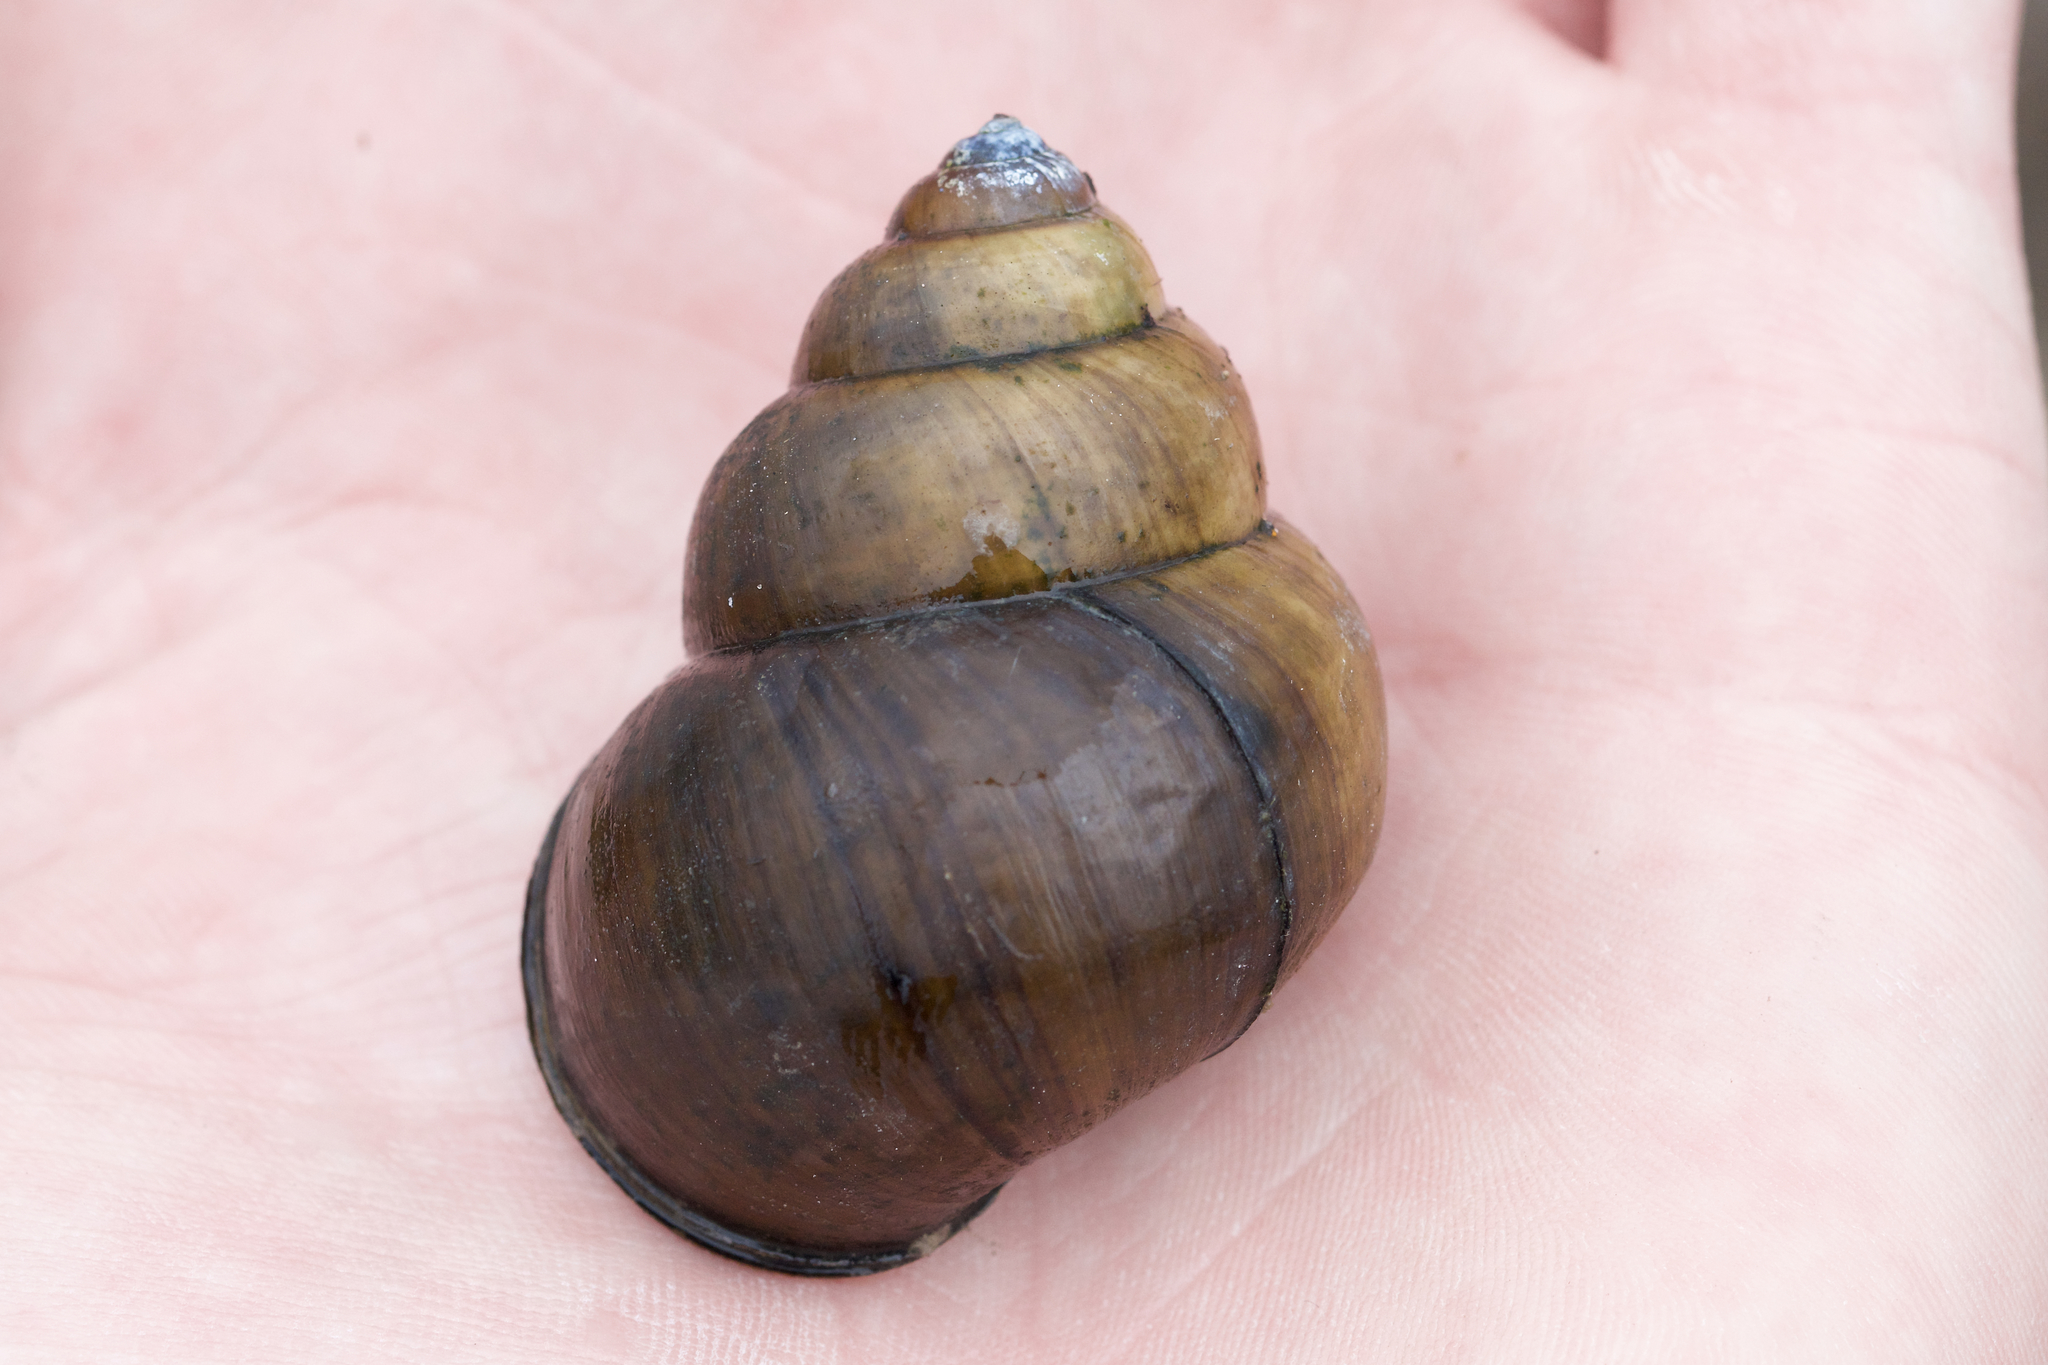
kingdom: Animalia
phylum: Mollusca
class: Gastropoda
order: Architaenioglossa
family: Viviparidae
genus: Cipangopaludina
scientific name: Cipangopaludina chinensis
